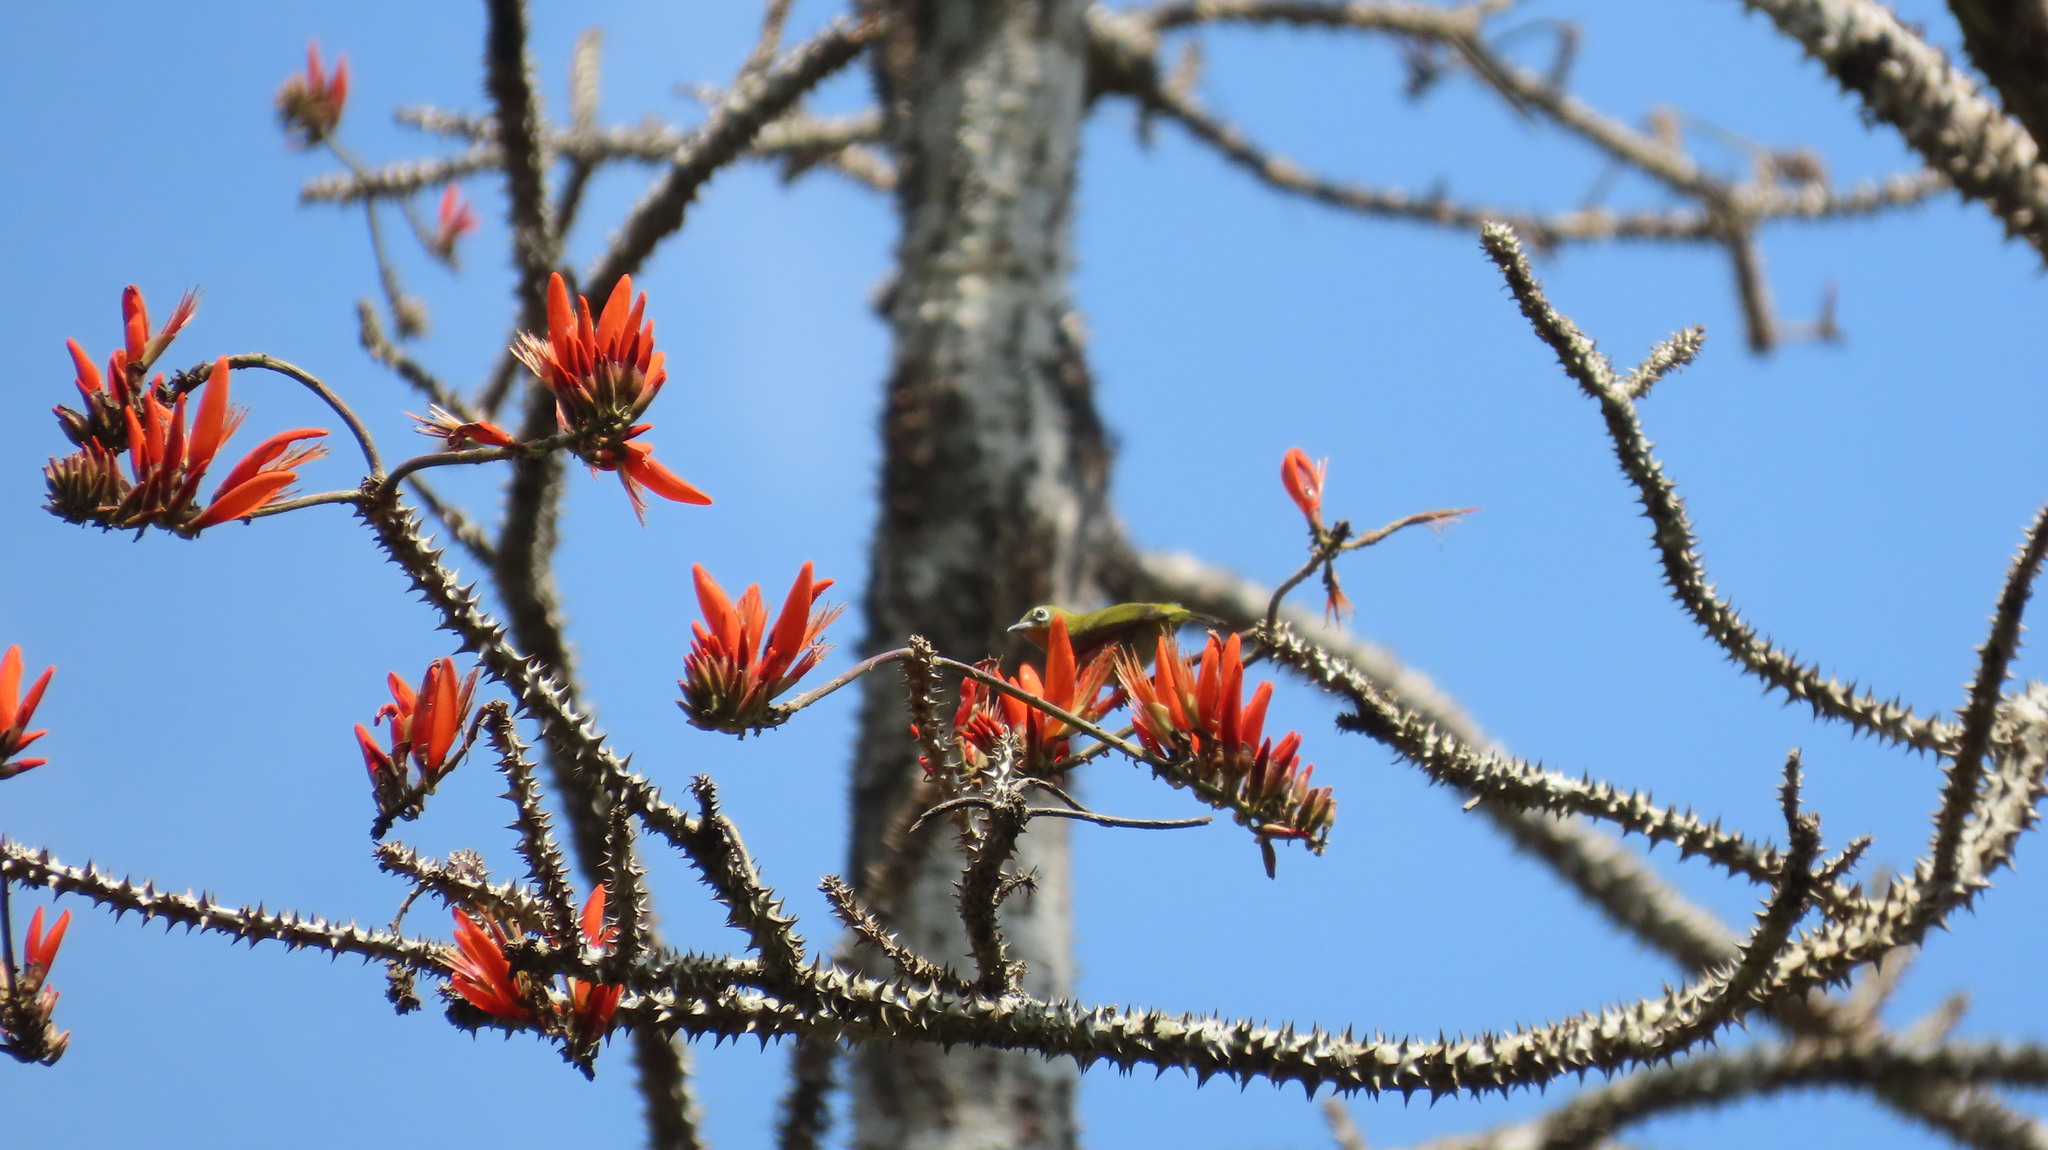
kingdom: Animalia
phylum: Chordata
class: Aves
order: Passeriformes
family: Zosteropidae
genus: Zosterops
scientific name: Zosterops palpebrosus
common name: Oriental white-eye
